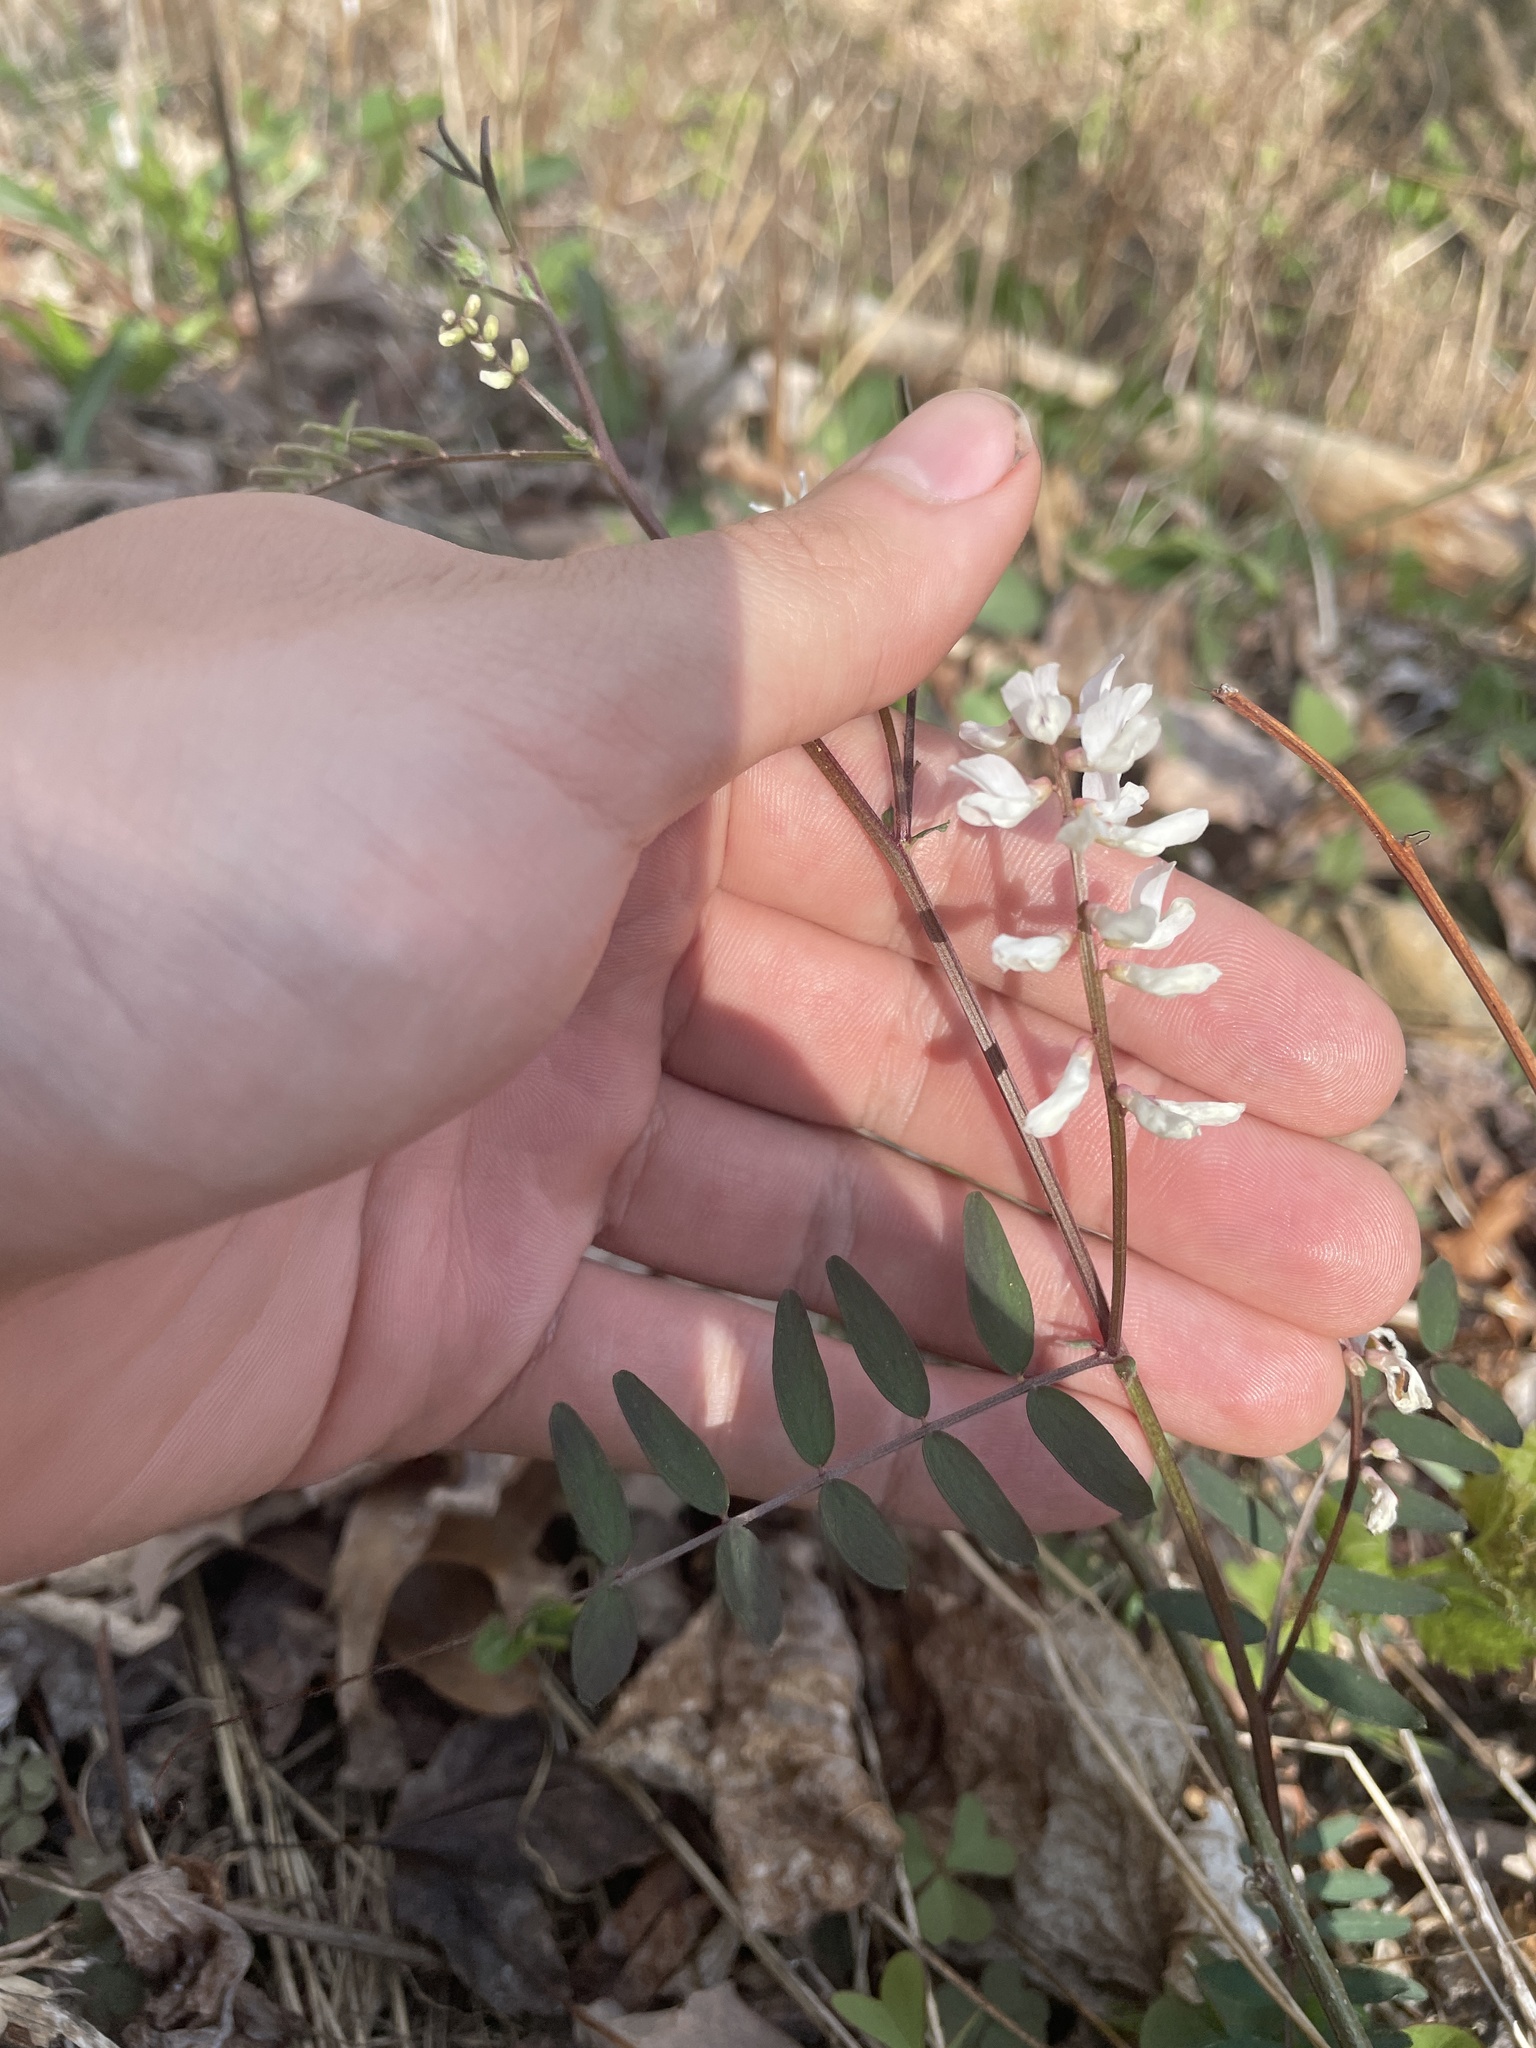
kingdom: Plantae
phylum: Tracheophyta
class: Magnoliopsida
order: Fabales
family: Fabaceae
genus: Vicia
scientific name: Vicia caroliniana
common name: Carolina vetch
